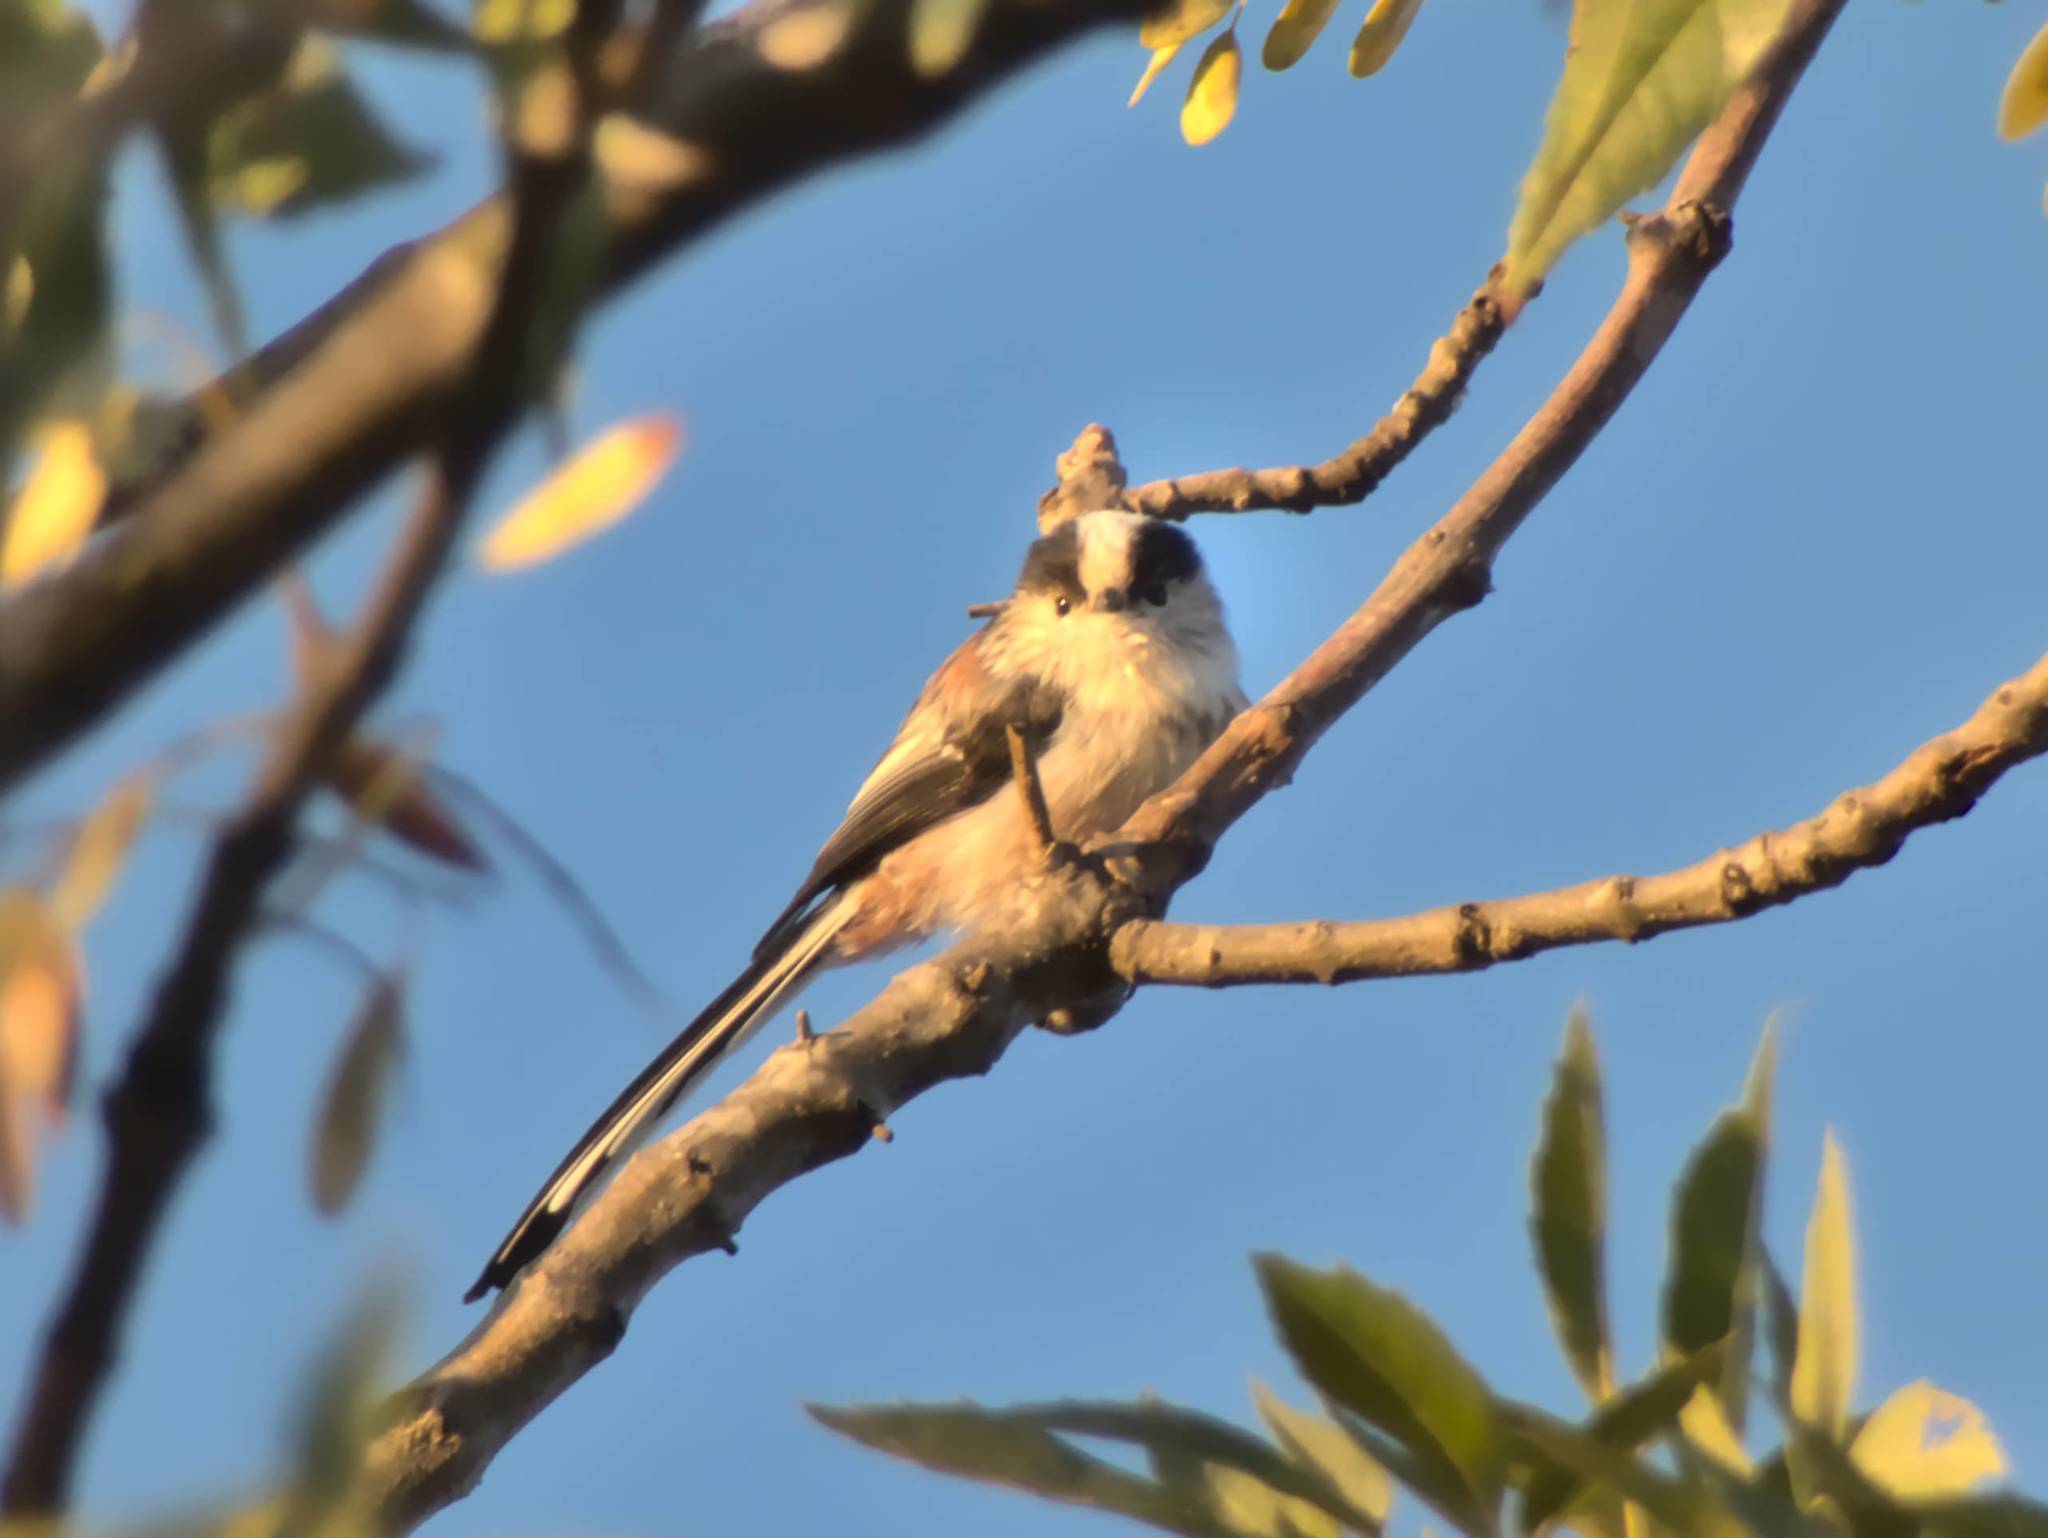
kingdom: Animalia
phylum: Chordata
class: Aves
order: Passeriformes
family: Aegithalidae
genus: Aegithalos
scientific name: Aegithalos caudatus
